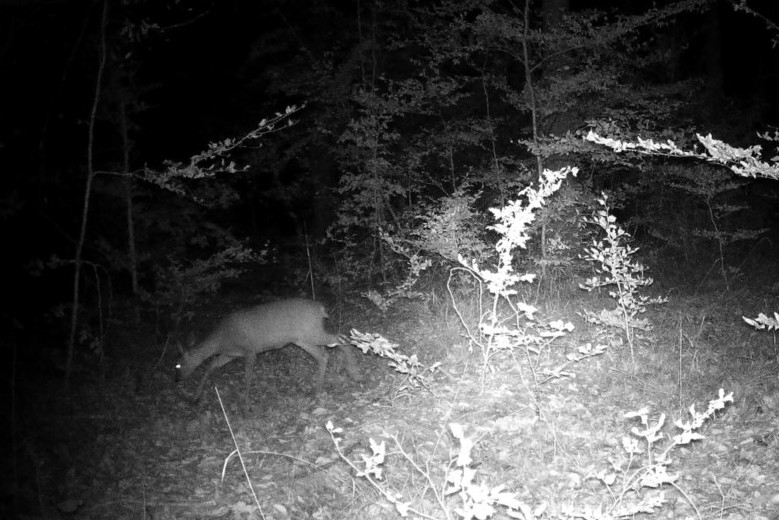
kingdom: Animalia
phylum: Chordata
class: Mammalia
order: Artiodactyla
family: Cervidae
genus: Capreolus
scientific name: Capreolus capreolus
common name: Western roe deer
